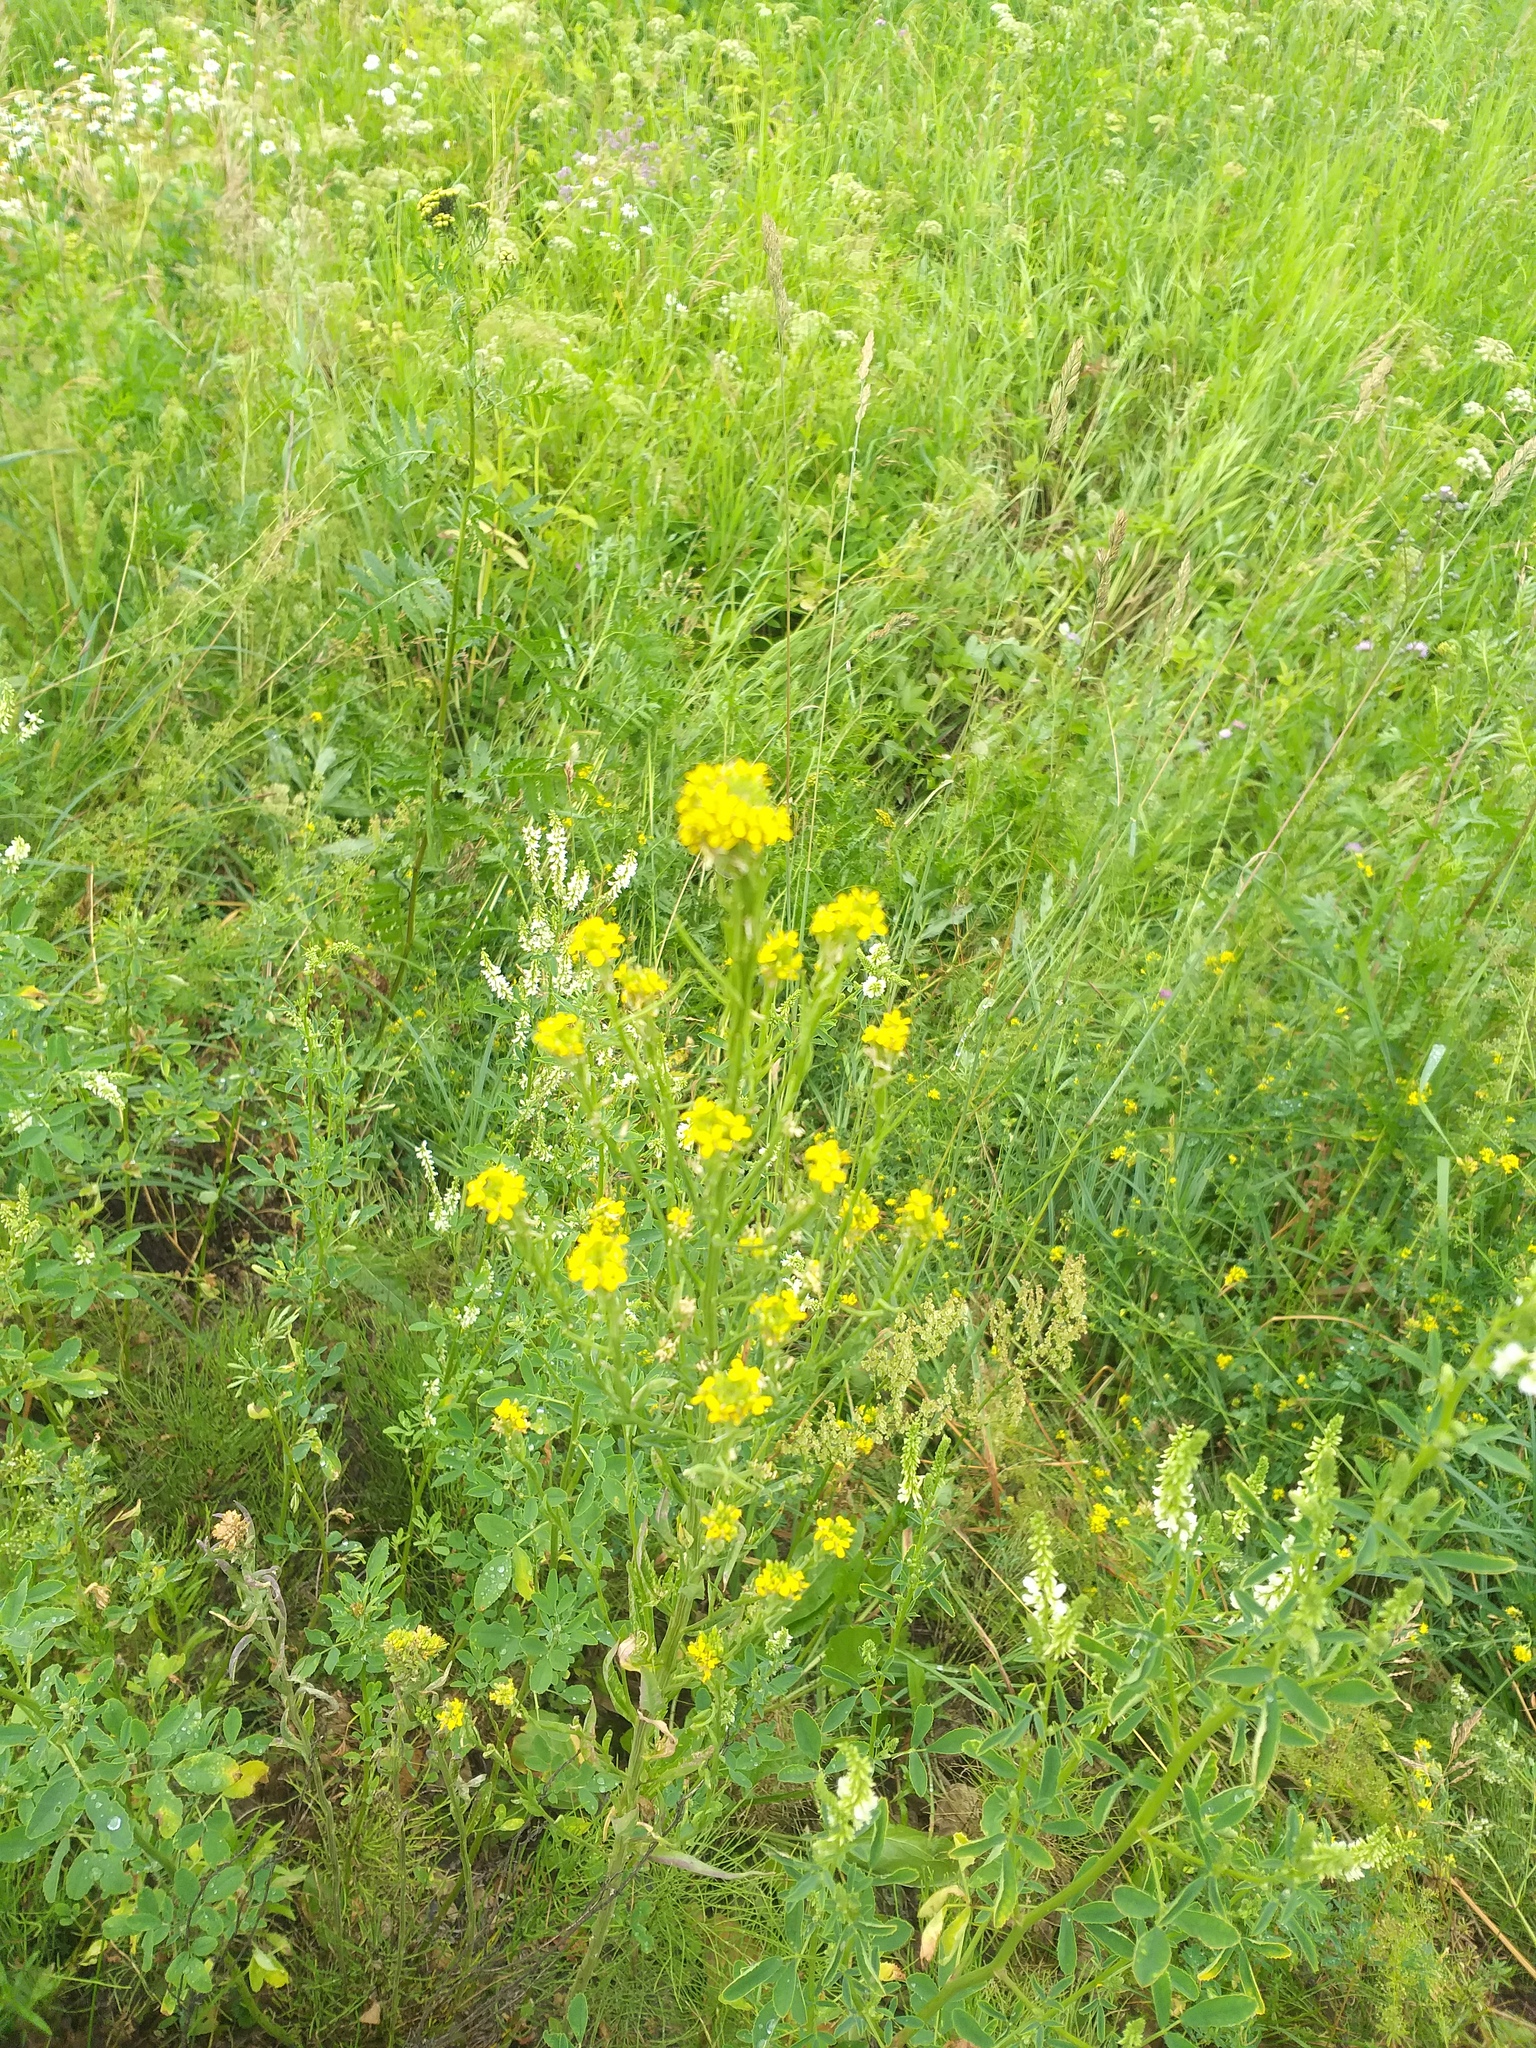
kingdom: Plantae
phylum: Tracheophyta
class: Magnoliopsida
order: Brassicales
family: Brassicaceae
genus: Erysimum
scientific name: Erysimum hieraciifolium
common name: European wallflower
